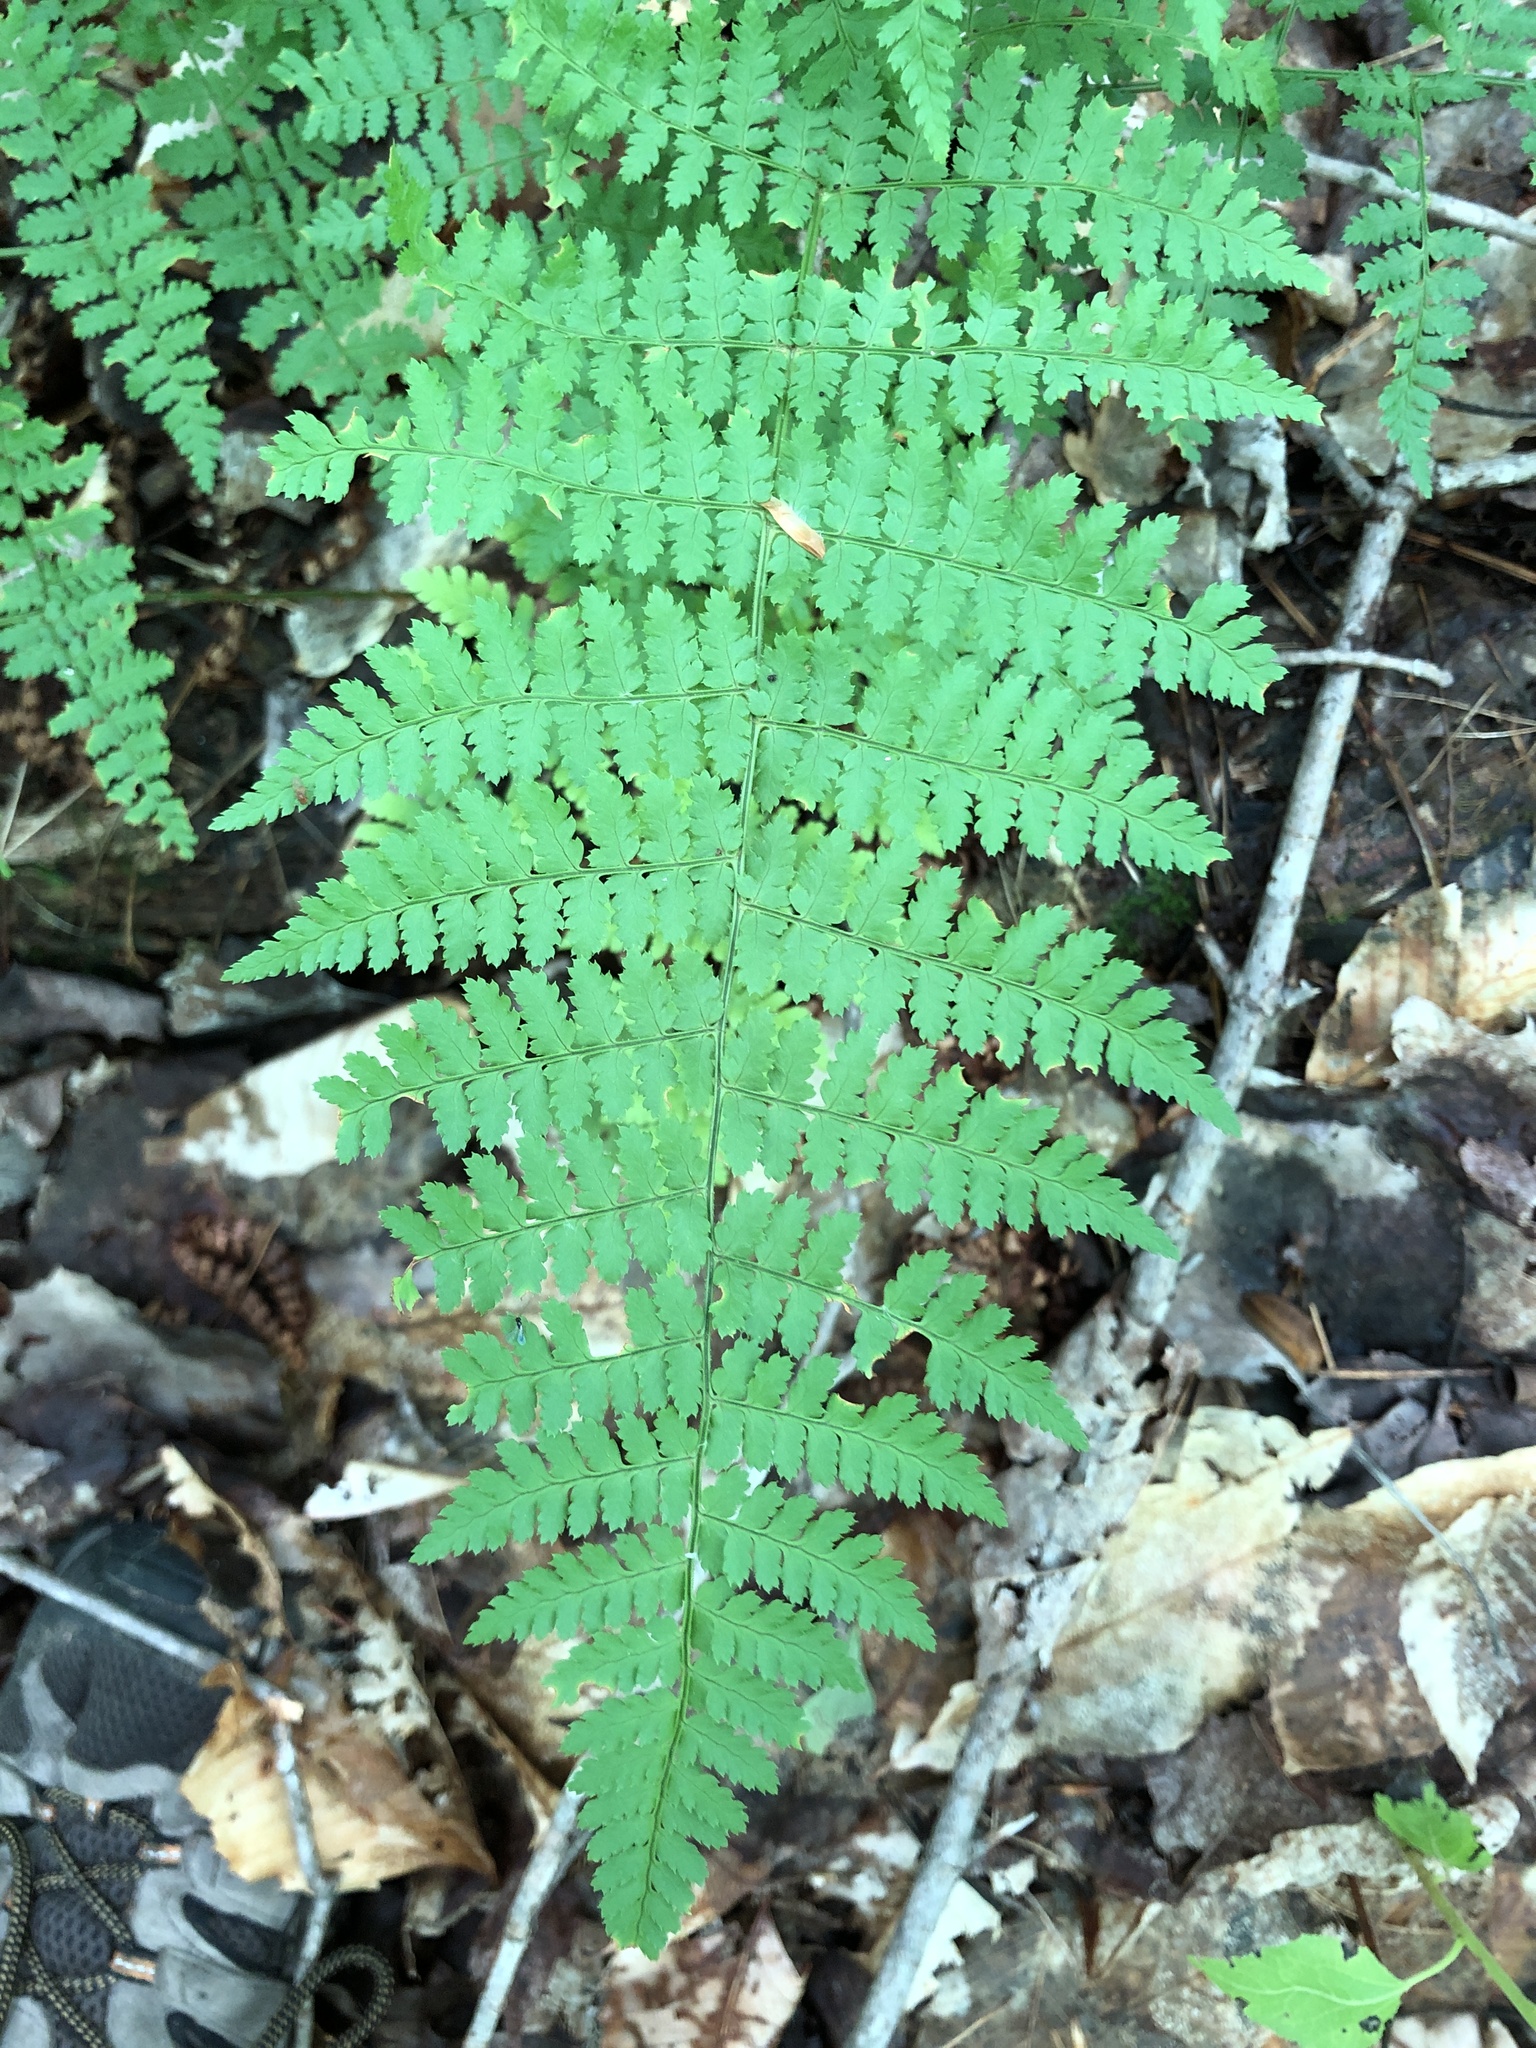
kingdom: Plantae
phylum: Tracheophyta
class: Polypodiopsida
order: Polypodiales
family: Dryopteridaceae
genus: Dryopteris
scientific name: Dryopteris intermedia
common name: Evergreen wood fern
